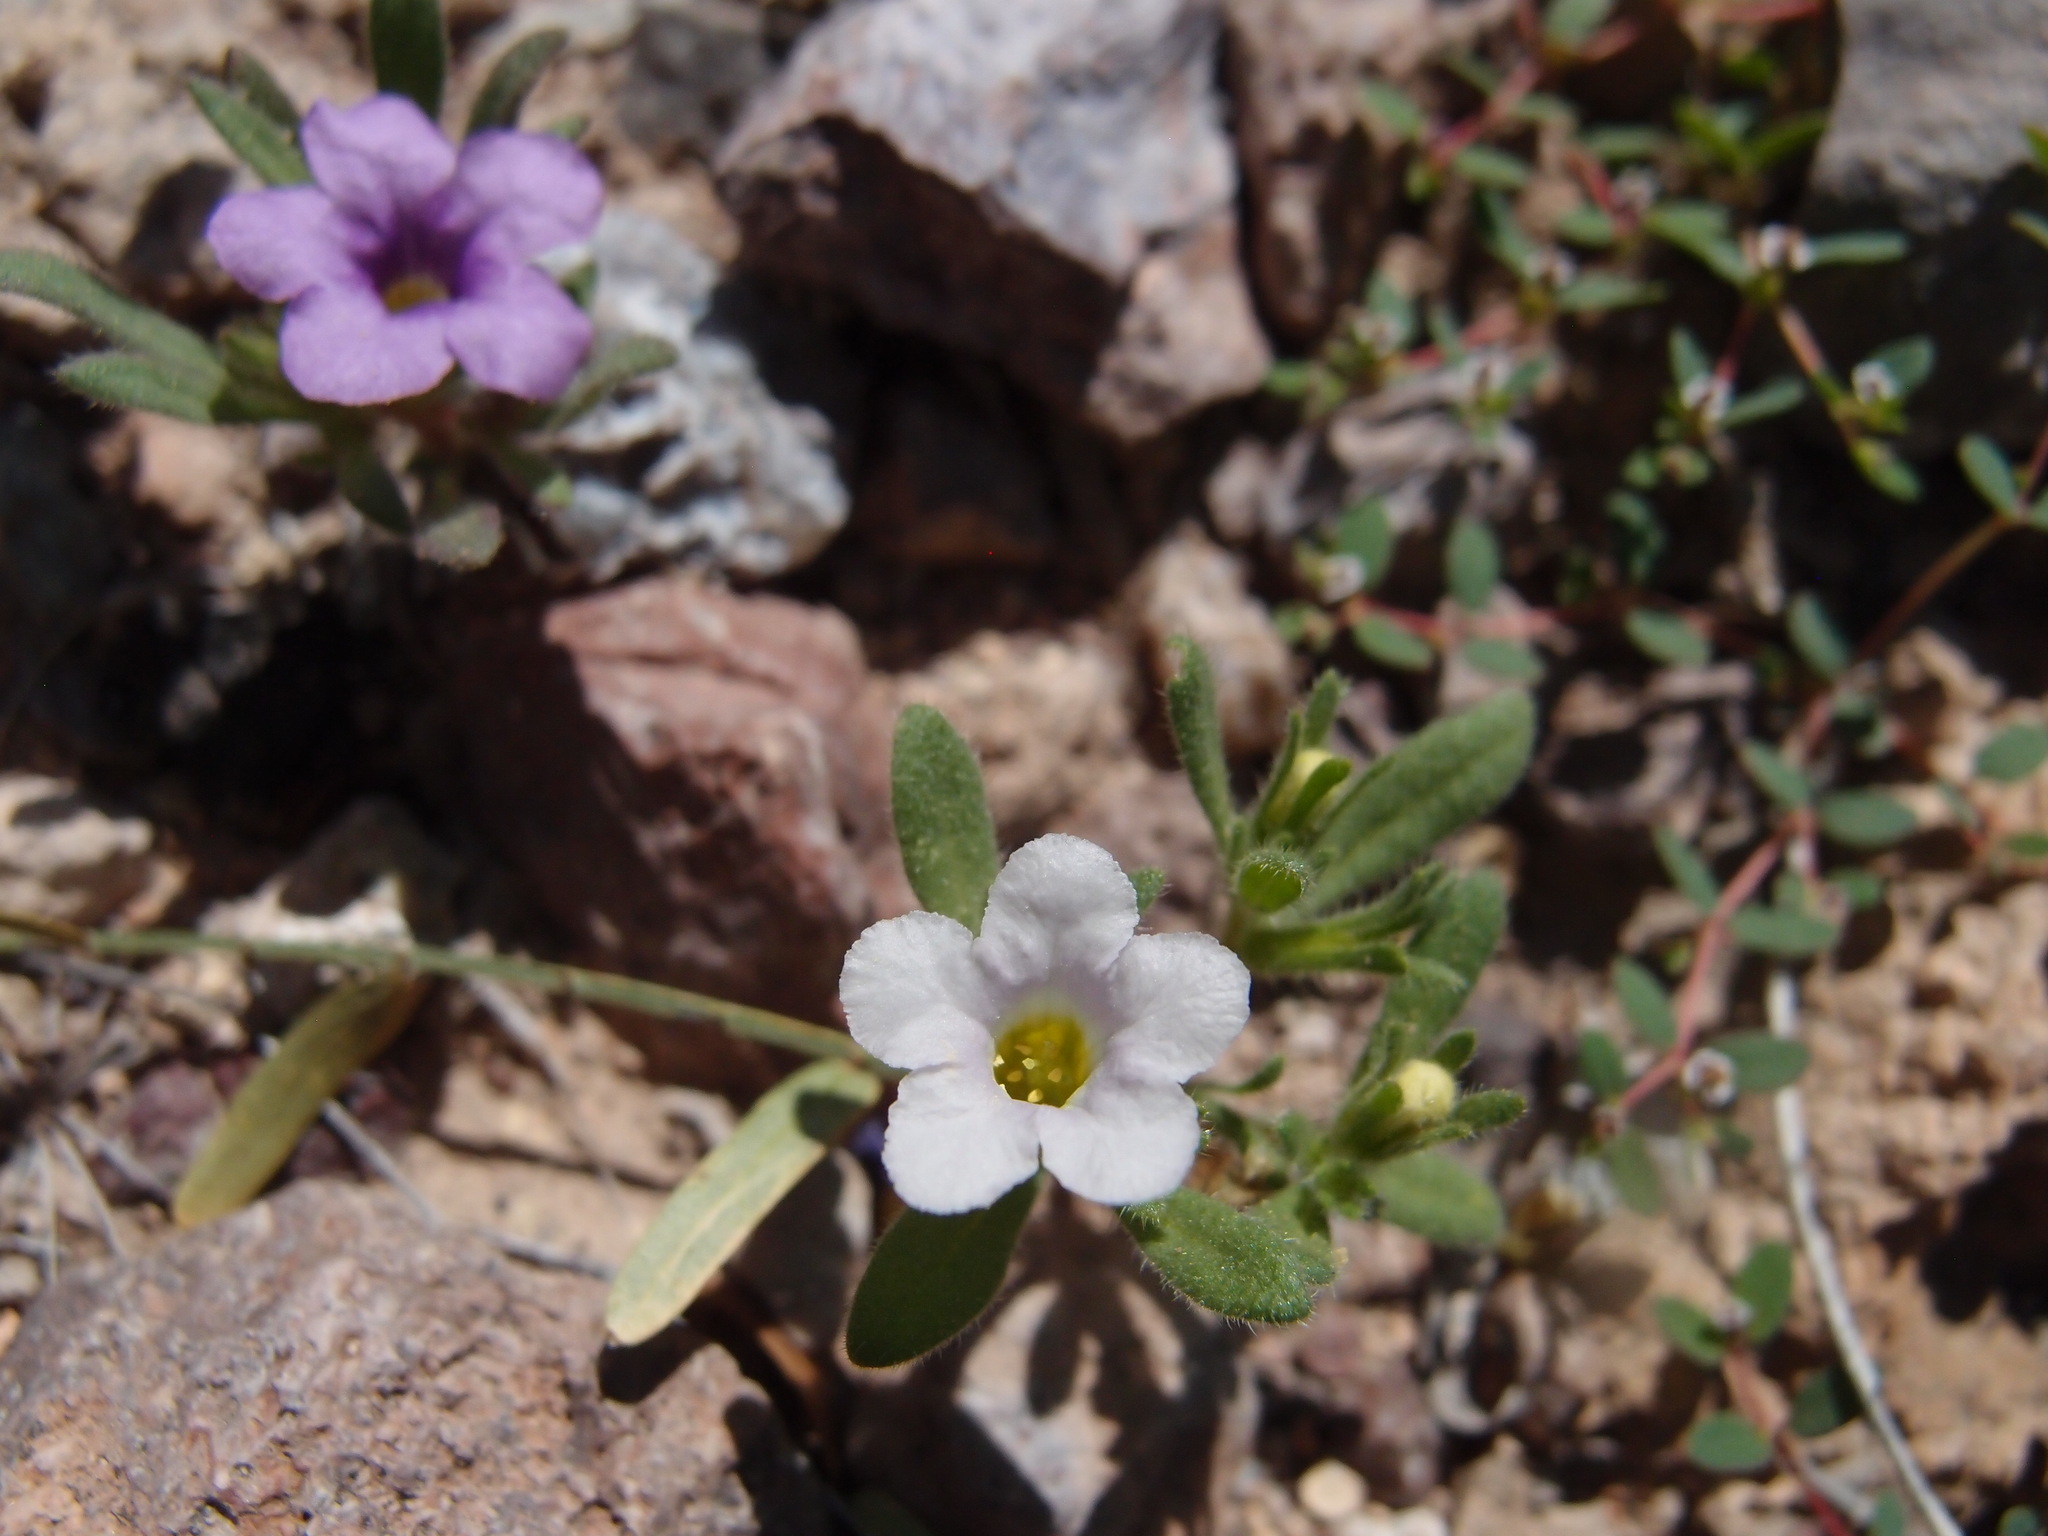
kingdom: Plantae
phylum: Tracheophyta
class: Magnoliopsida
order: Boraginales
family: Namaceae
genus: Nama
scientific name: Nama hispida
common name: Bristly nama
